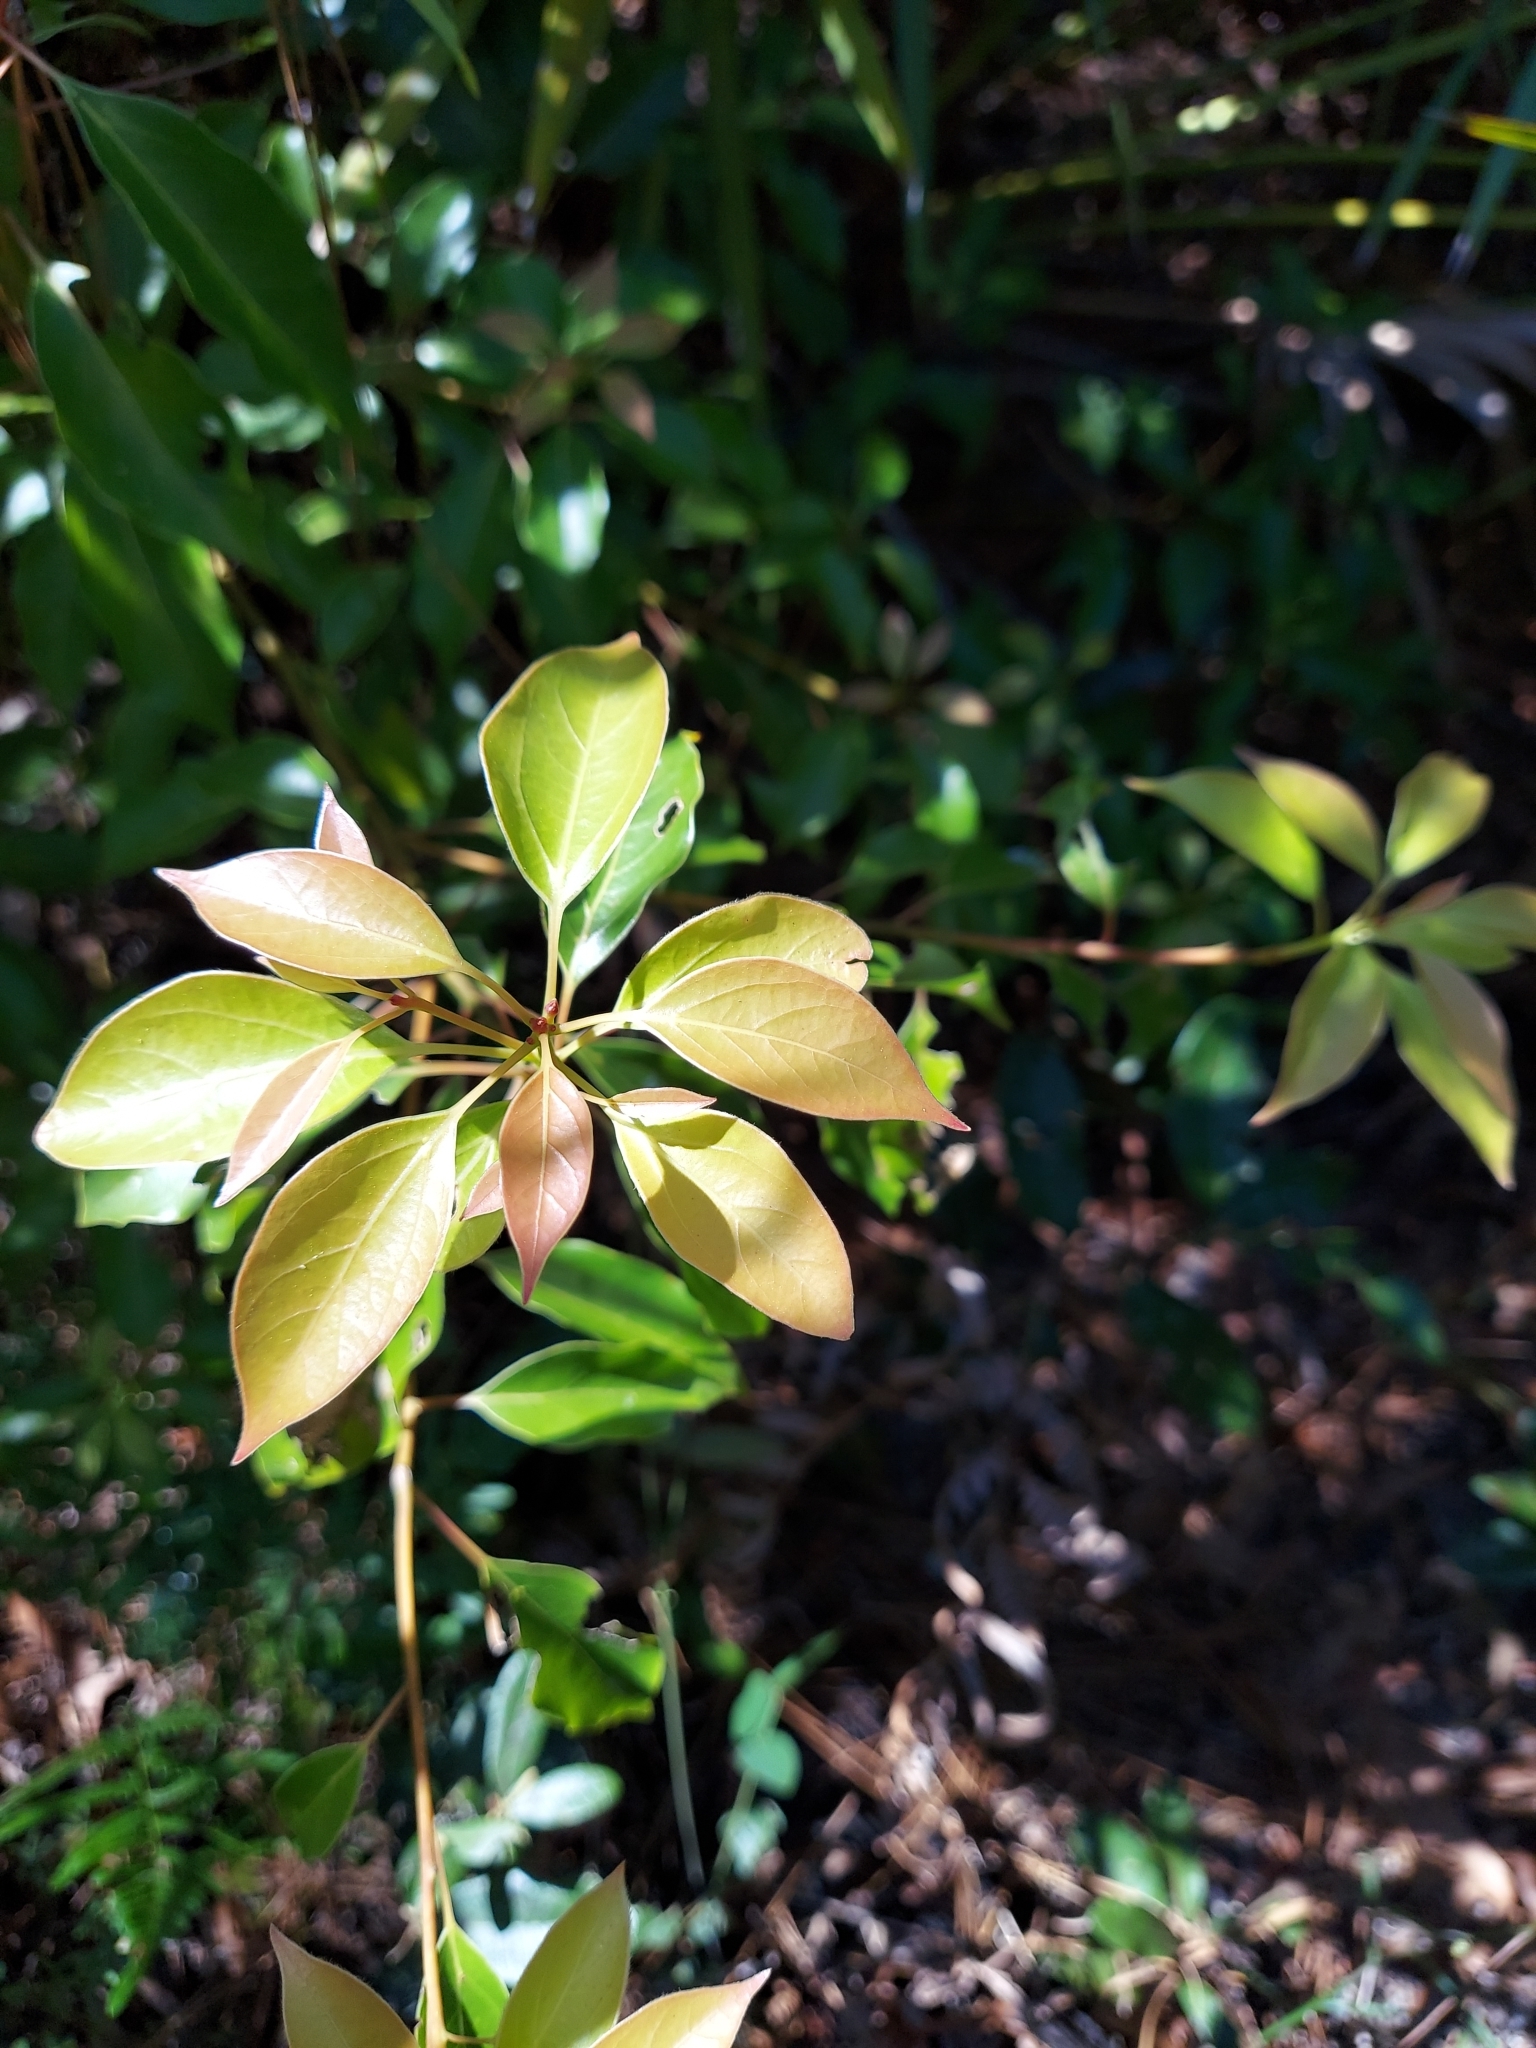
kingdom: Plantae
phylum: Tracheophyta
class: Magnoliopsida
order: Laurales
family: Lauraceae
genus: Cinnamomum
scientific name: Cinnamomum camphora
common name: Camphortree
